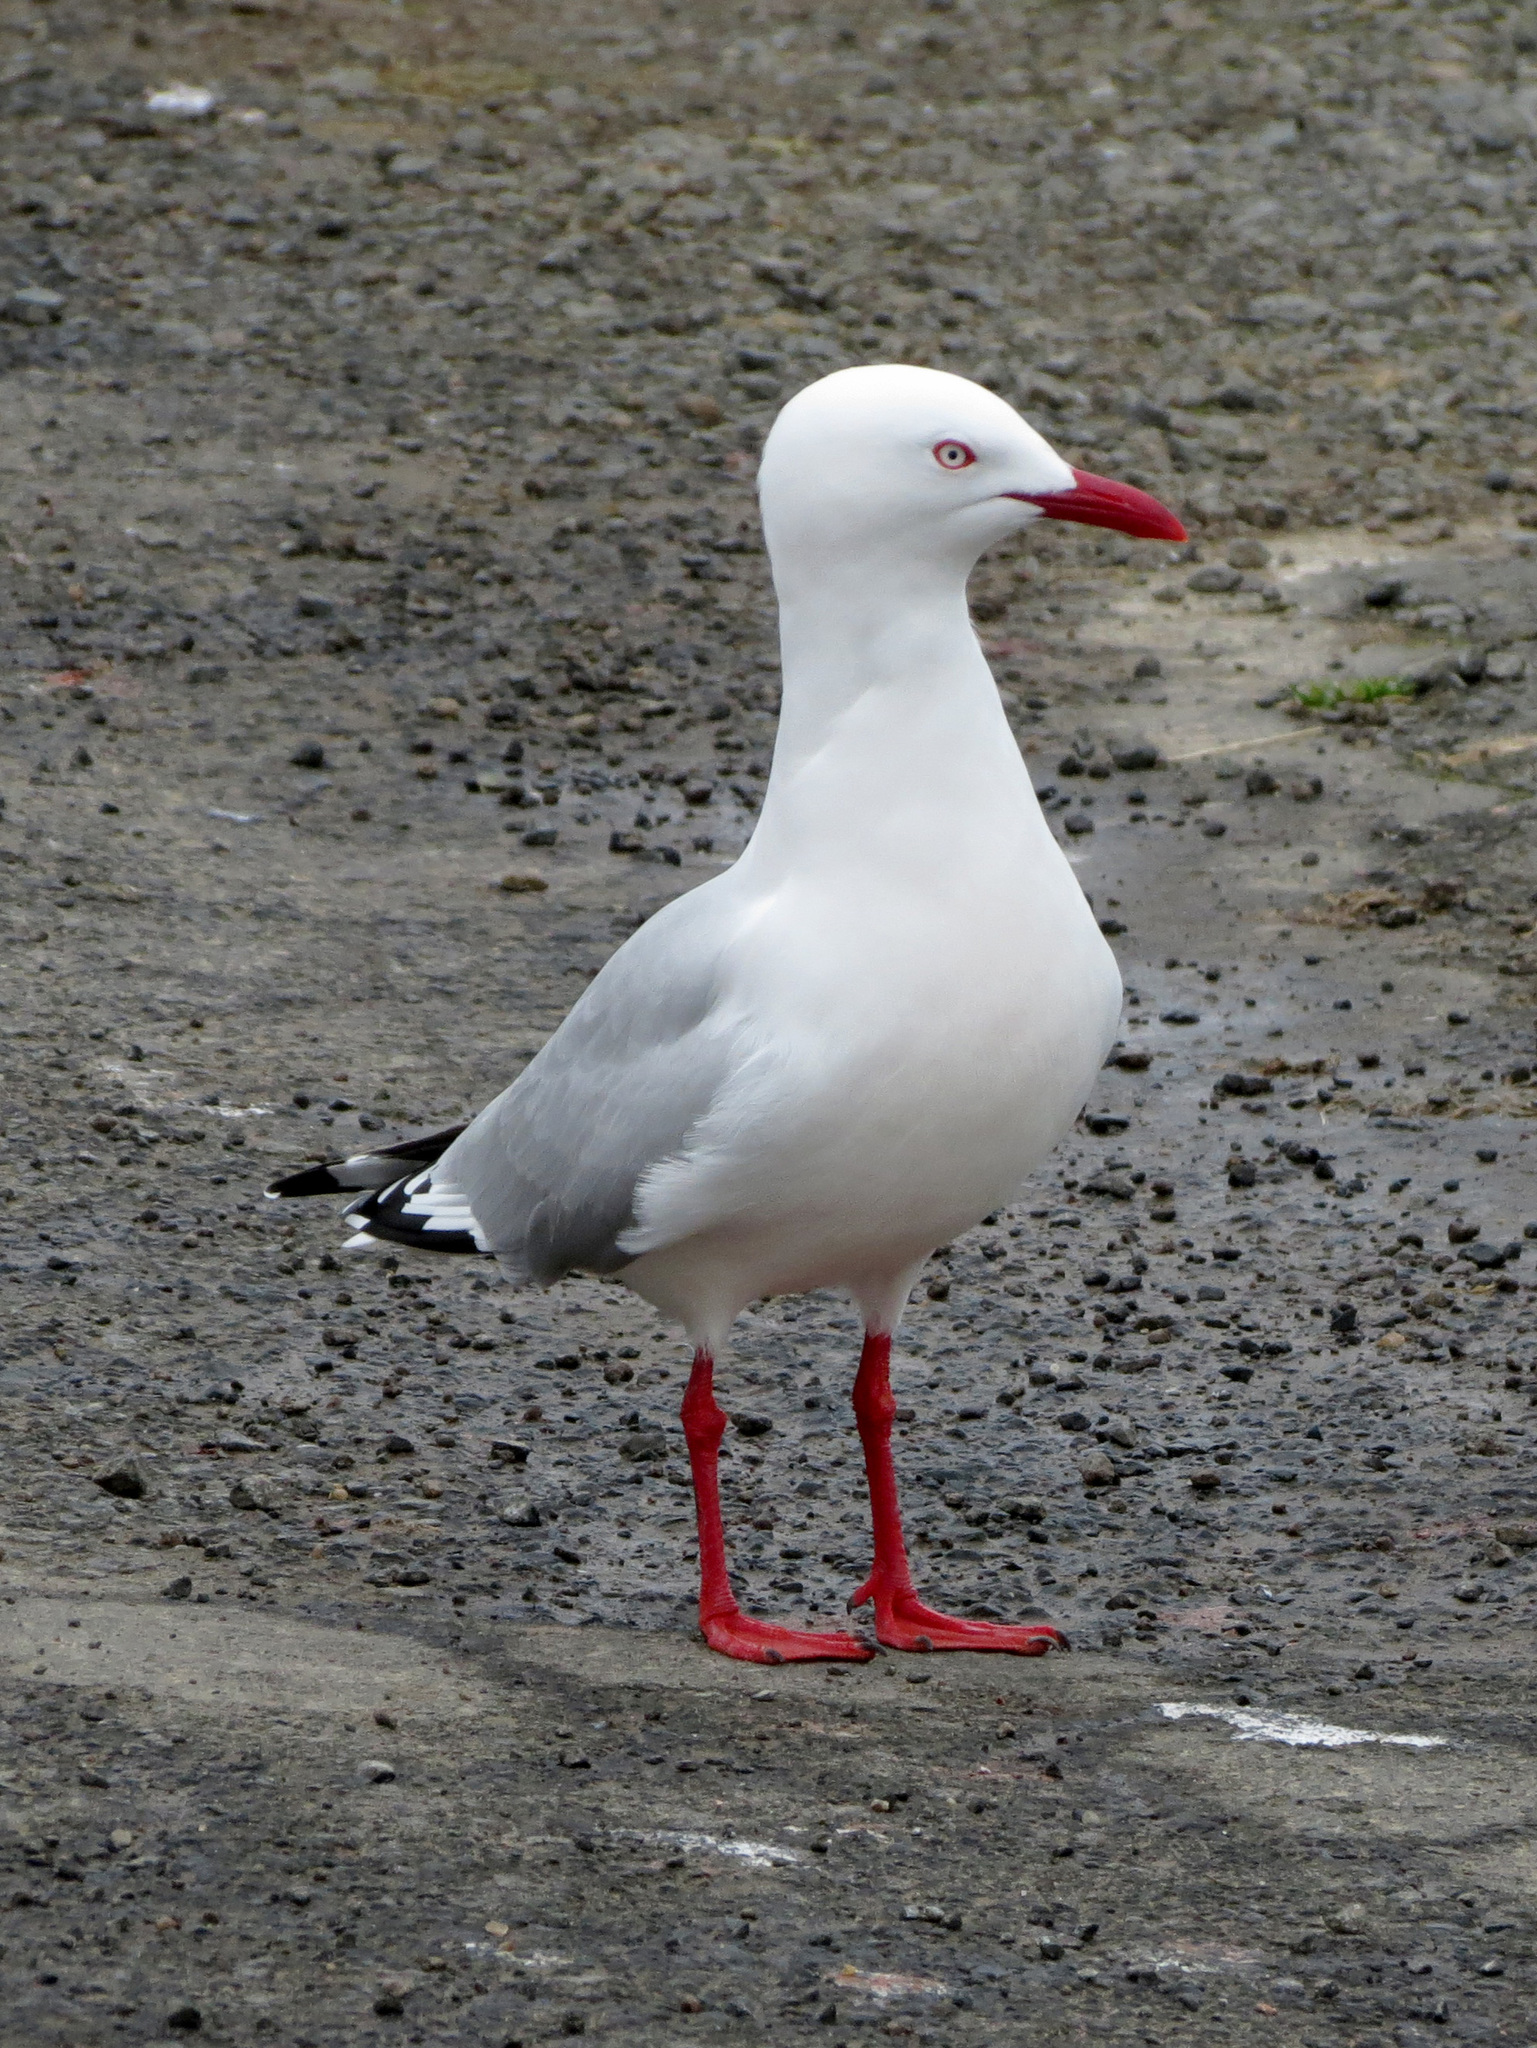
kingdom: Animalia
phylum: Chordata
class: Aves
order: Charadriiformes
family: Laridae
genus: Chroicocephalus
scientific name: Chroicocephalus novaehollandiae
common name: Silver gull
